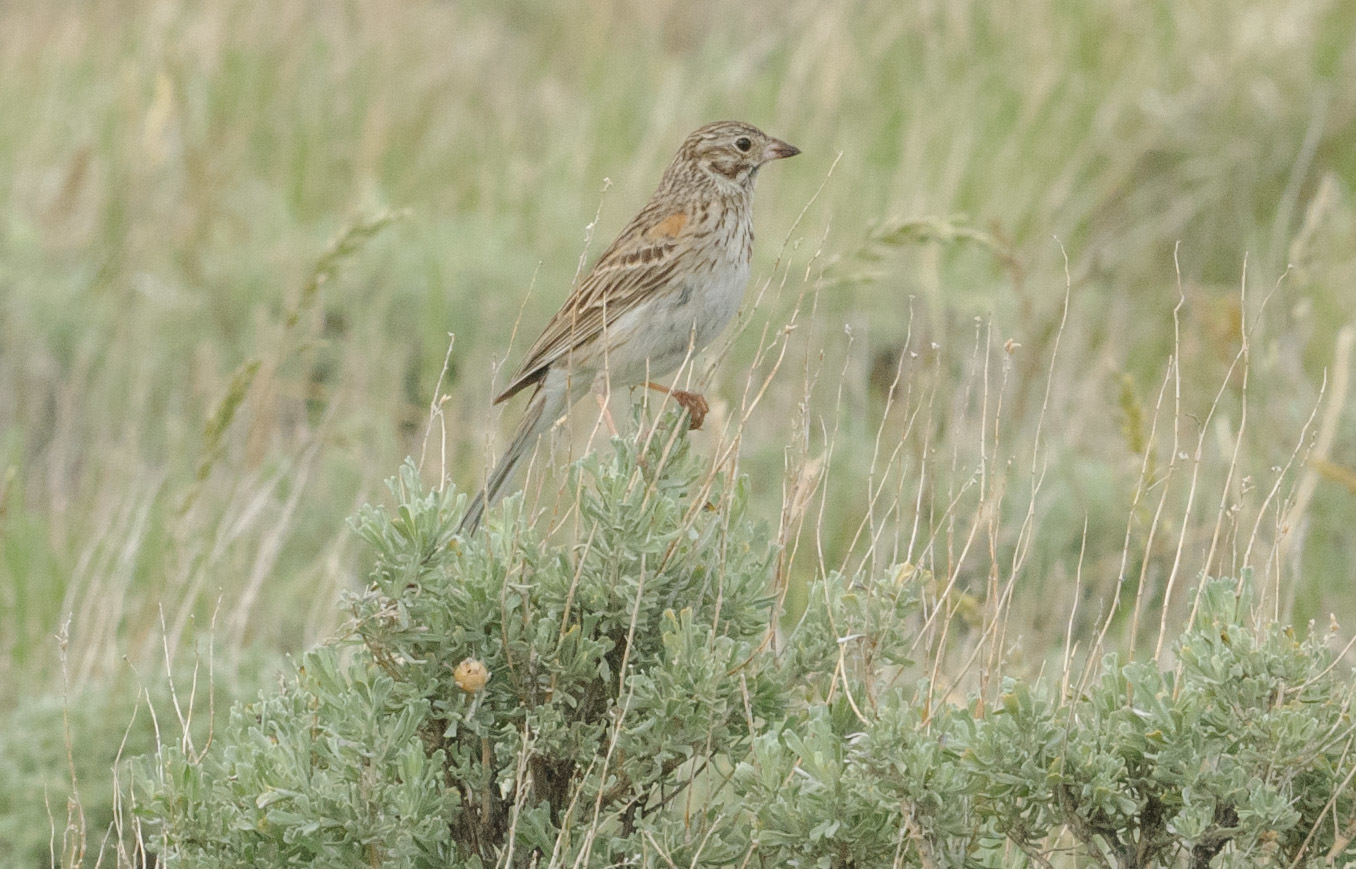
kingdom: Animalia
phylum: Chordata
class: Aves
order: Passeriformes
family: Passerellidae
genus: Pooecetes
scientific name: Pooecetes gramineus
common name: Vesper sparrow
